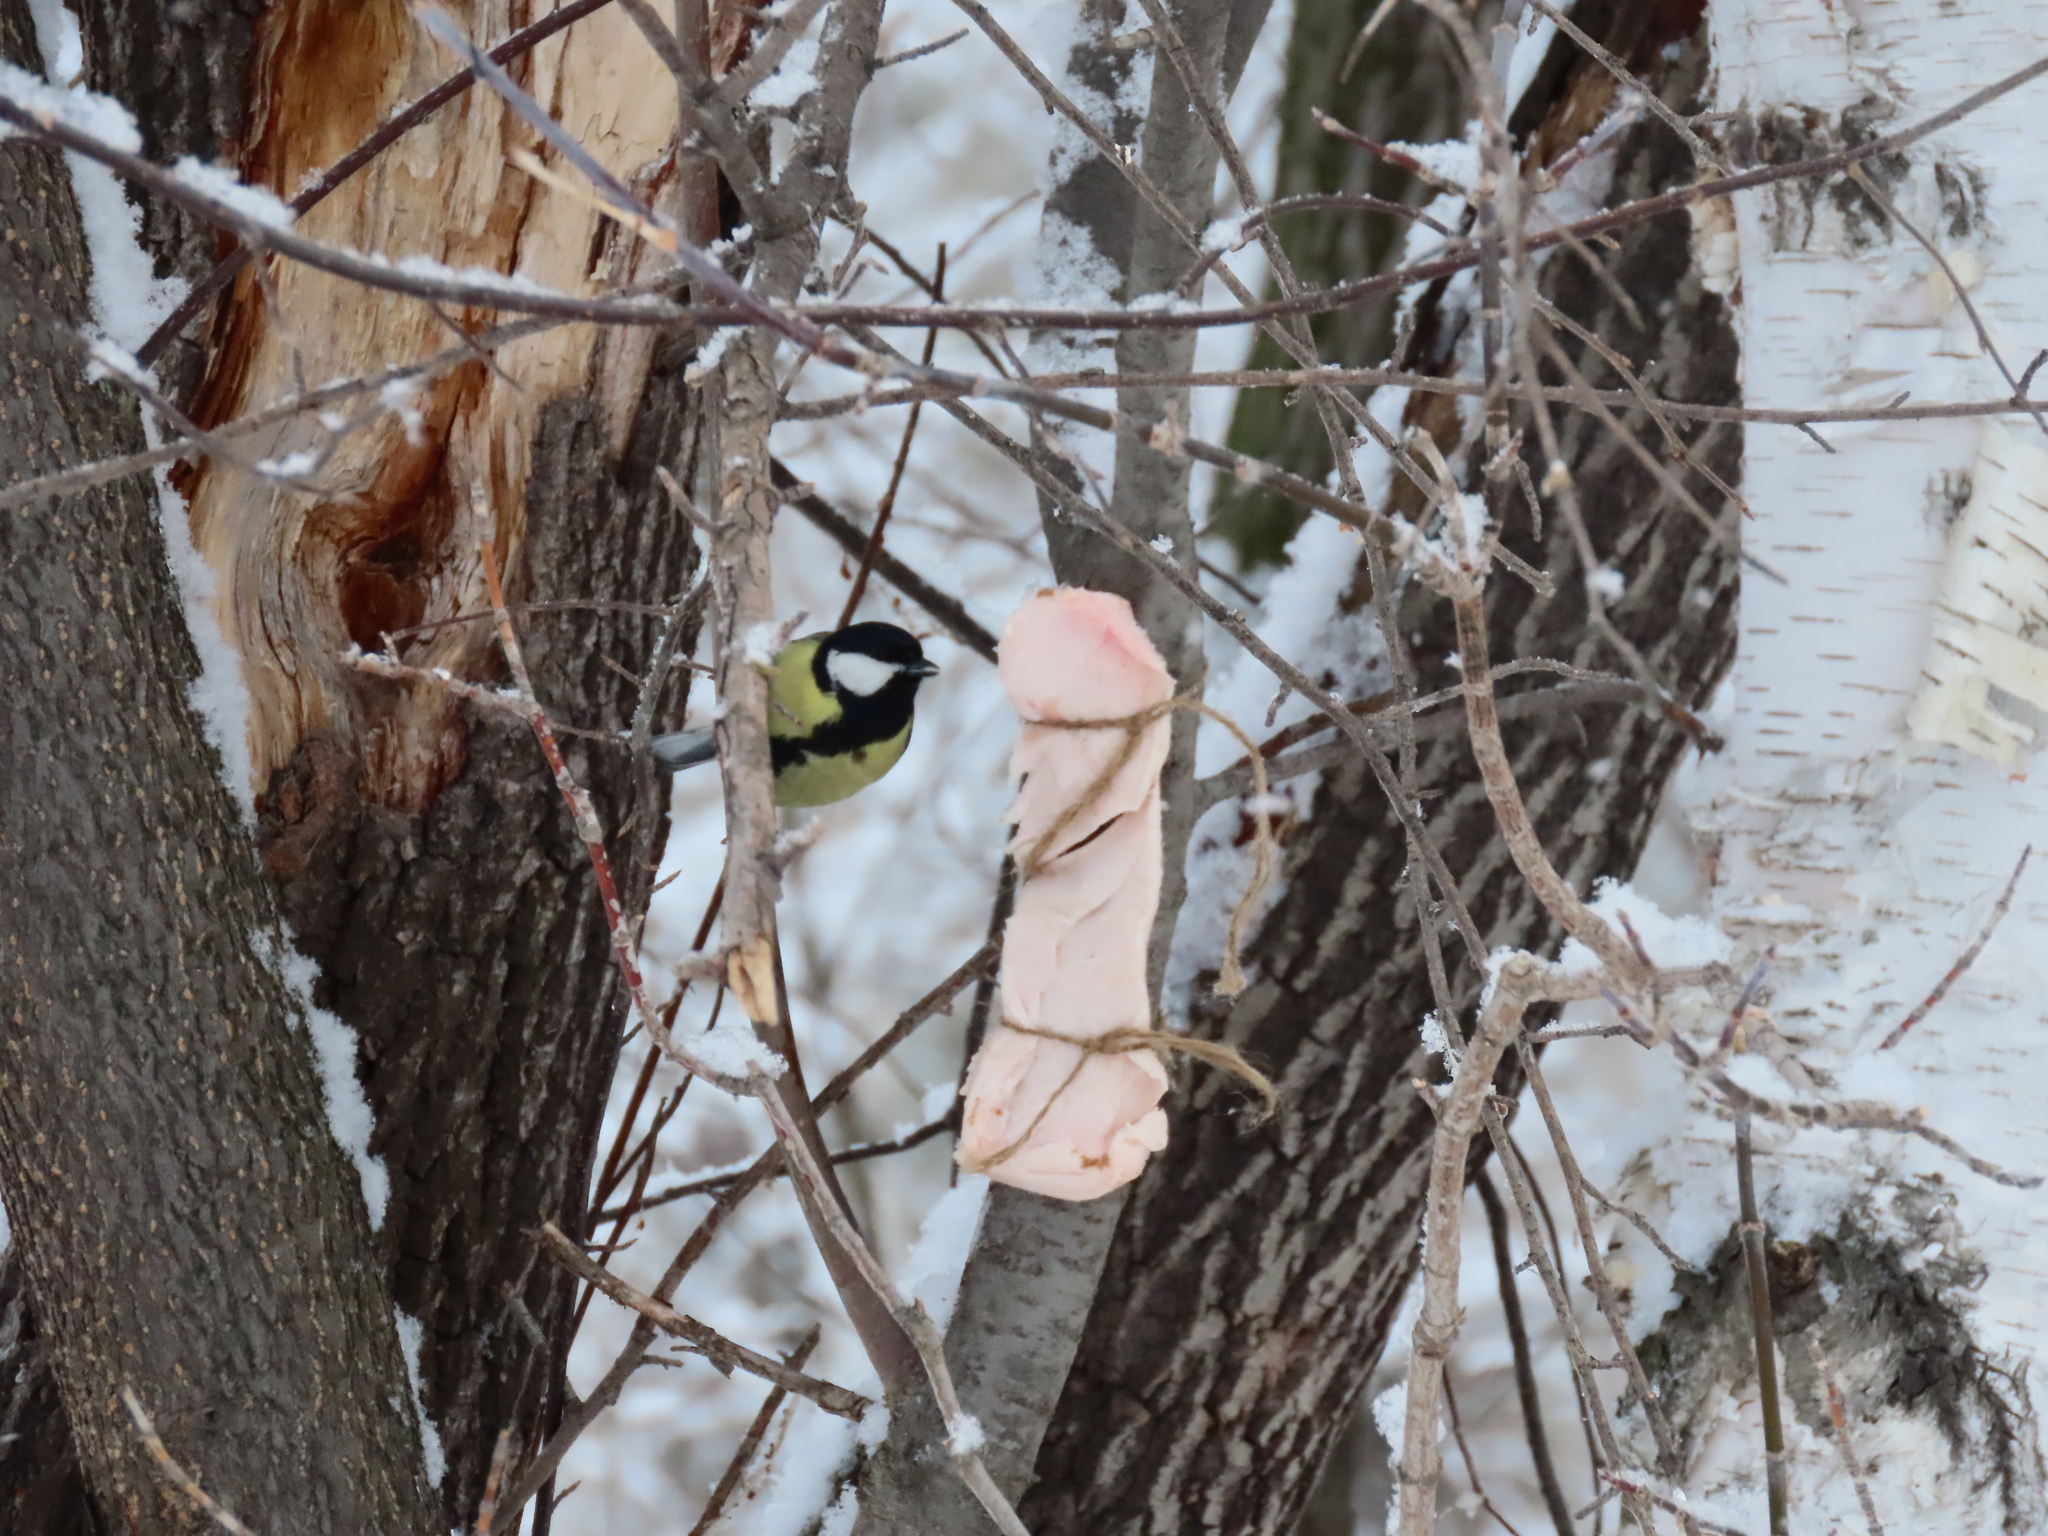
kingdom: Animalia
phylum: Chordata
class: Aves
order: Passeriformes
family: Paridae
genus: Parus
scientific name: Parus major
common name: Great tit
